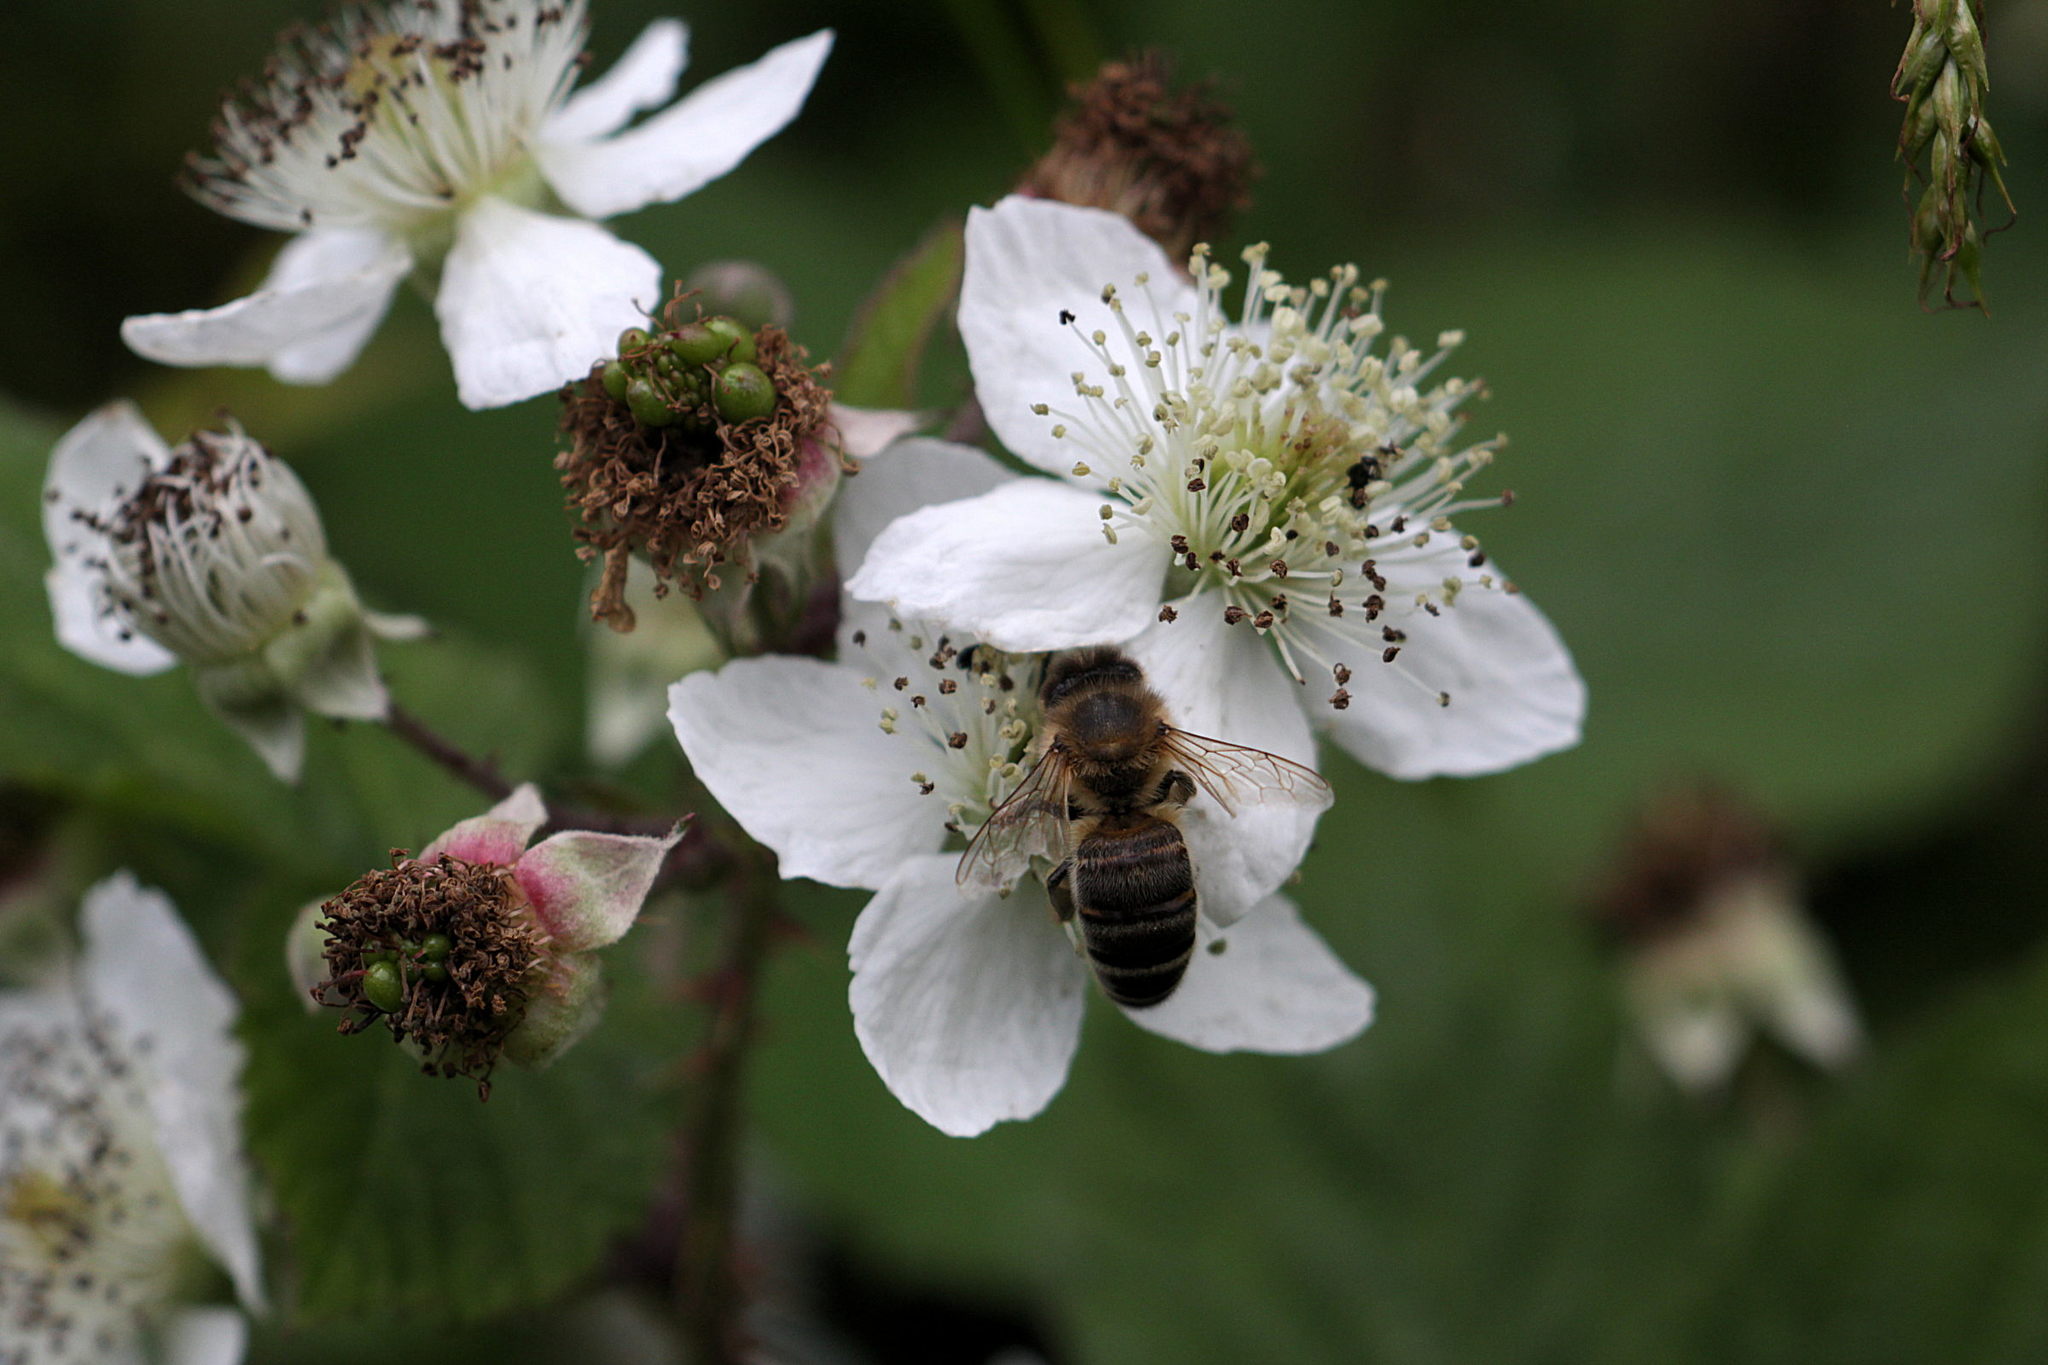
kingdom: Animalia
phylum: Arthropoda
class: Insecta
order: Hymenoptera
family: Apidae
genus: Apis
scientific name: Apis mellifera
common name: Honey bee
